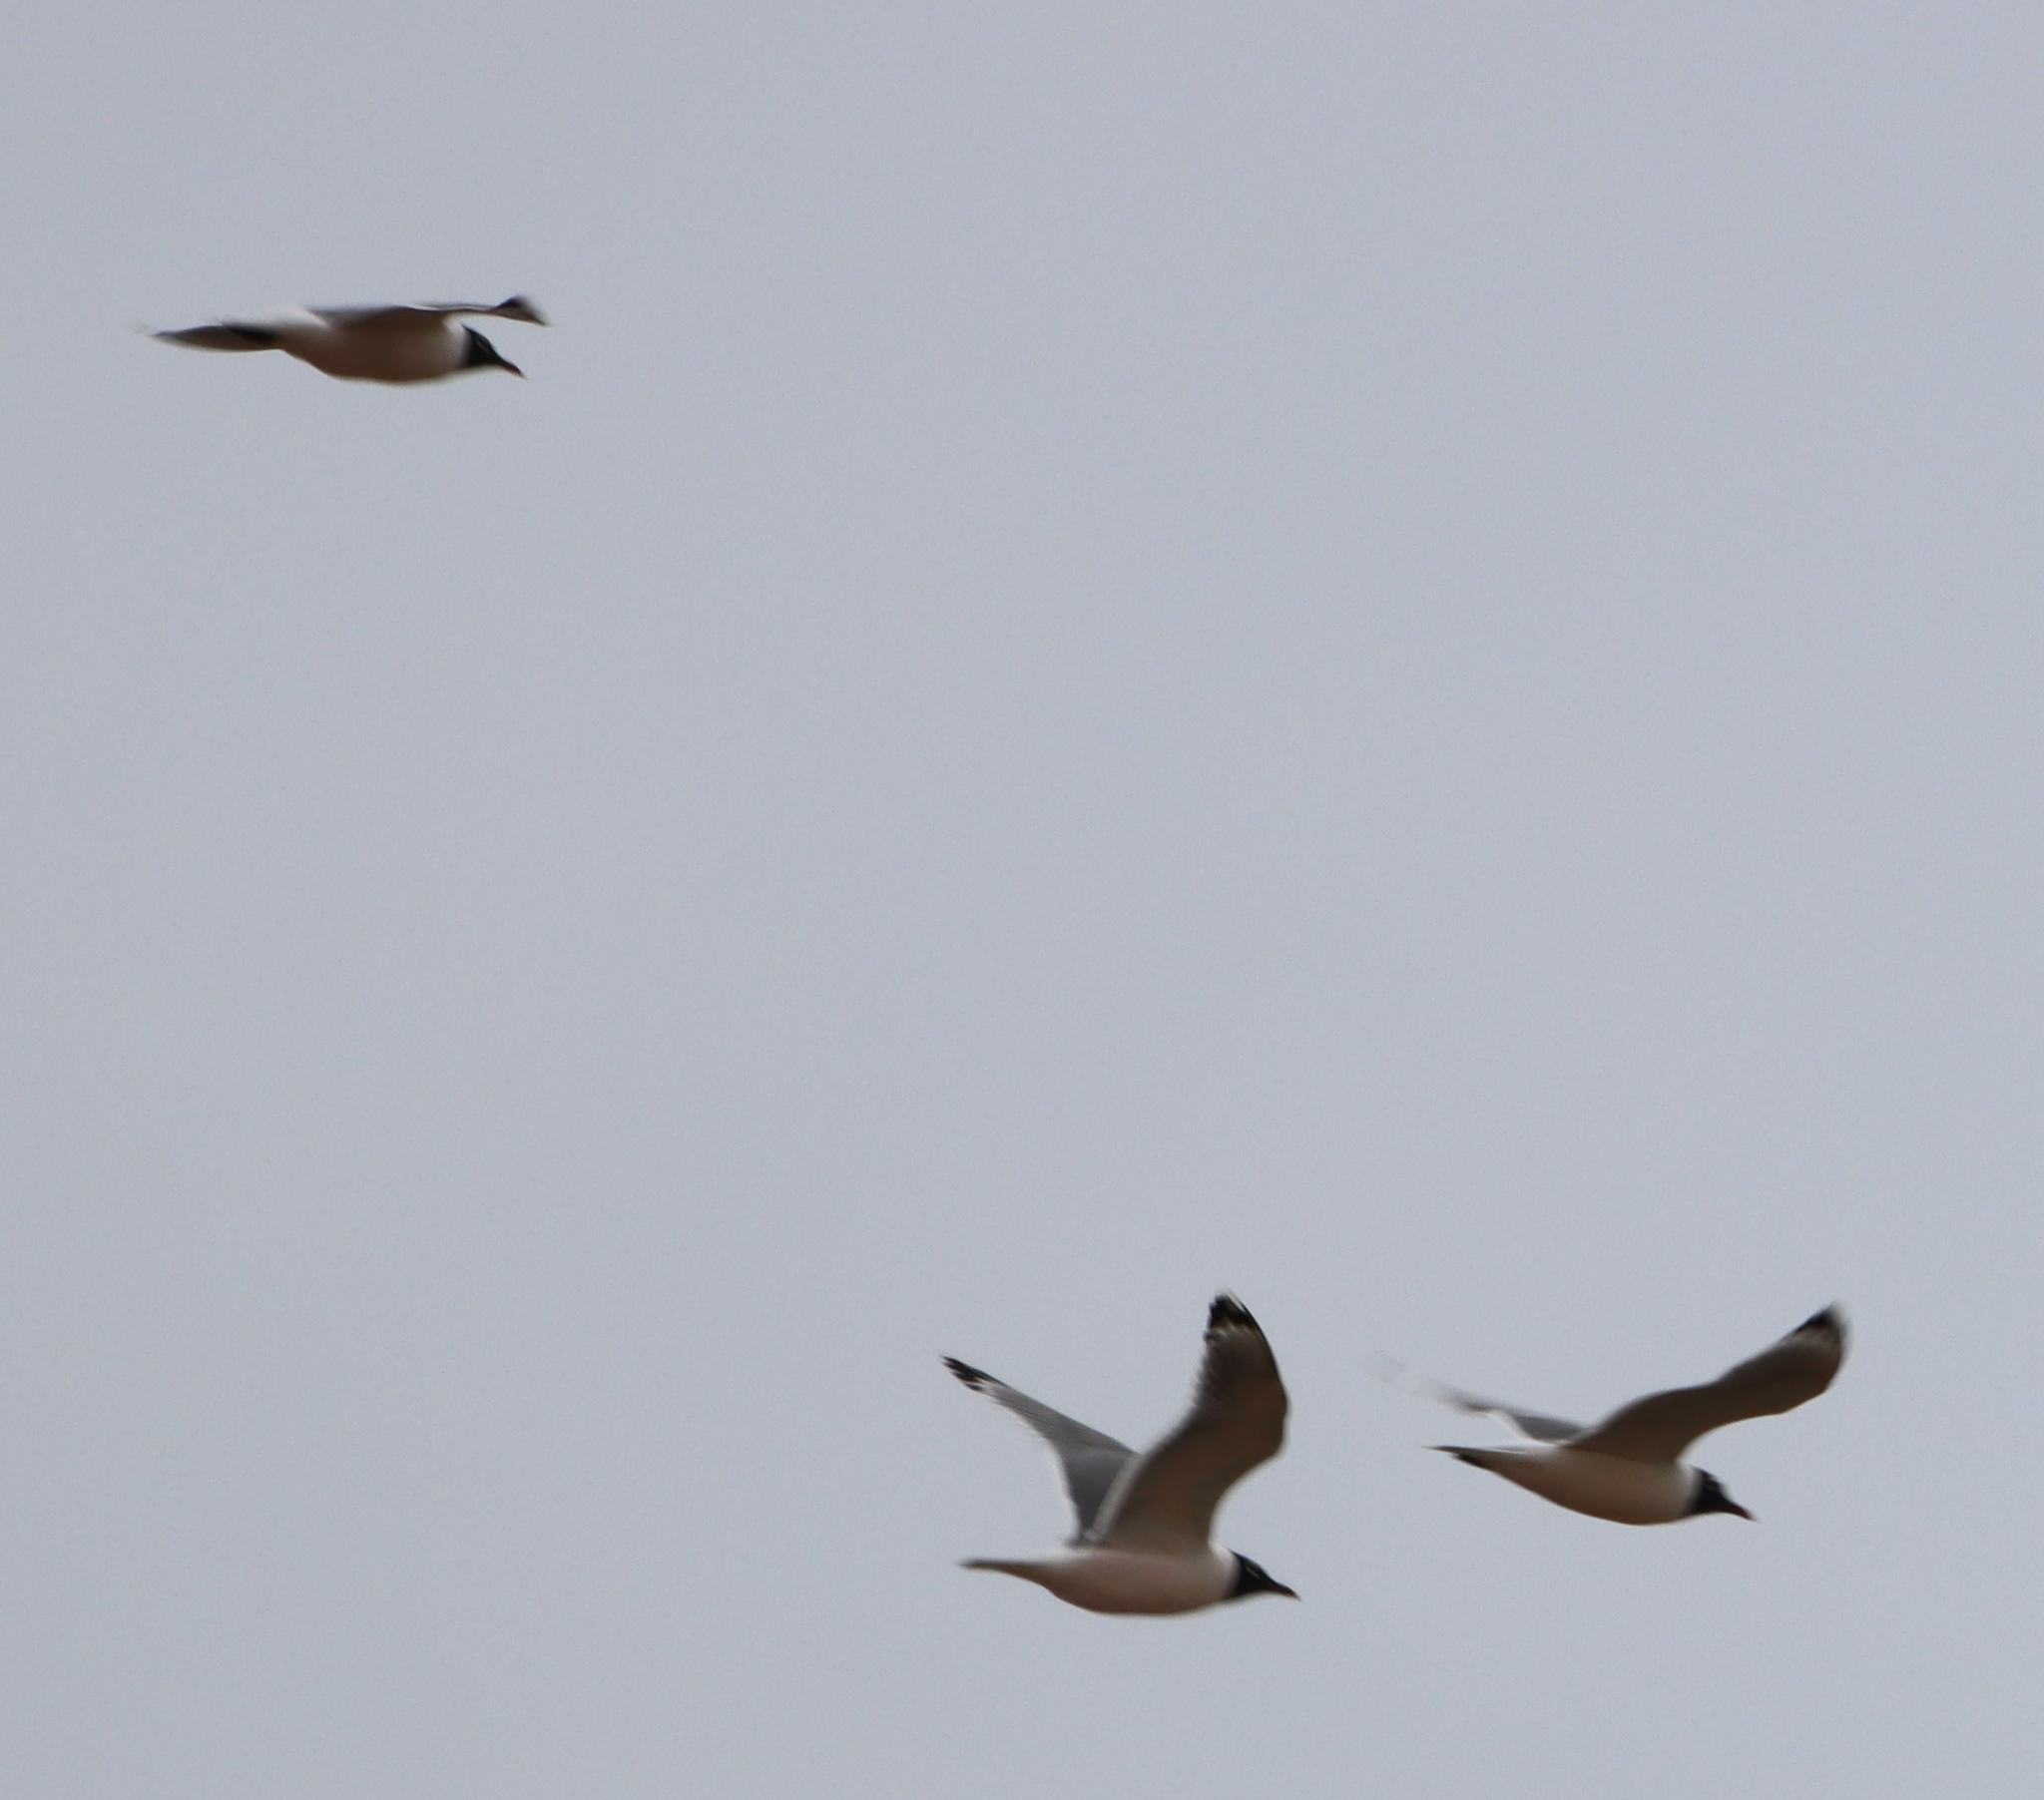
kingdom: Animalia
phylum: Chordata
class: Aves
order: Charadriiformes
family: Laridae
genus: Leucophaeus
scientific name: Leucophaeus pipixcan
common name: Franklin's gull
